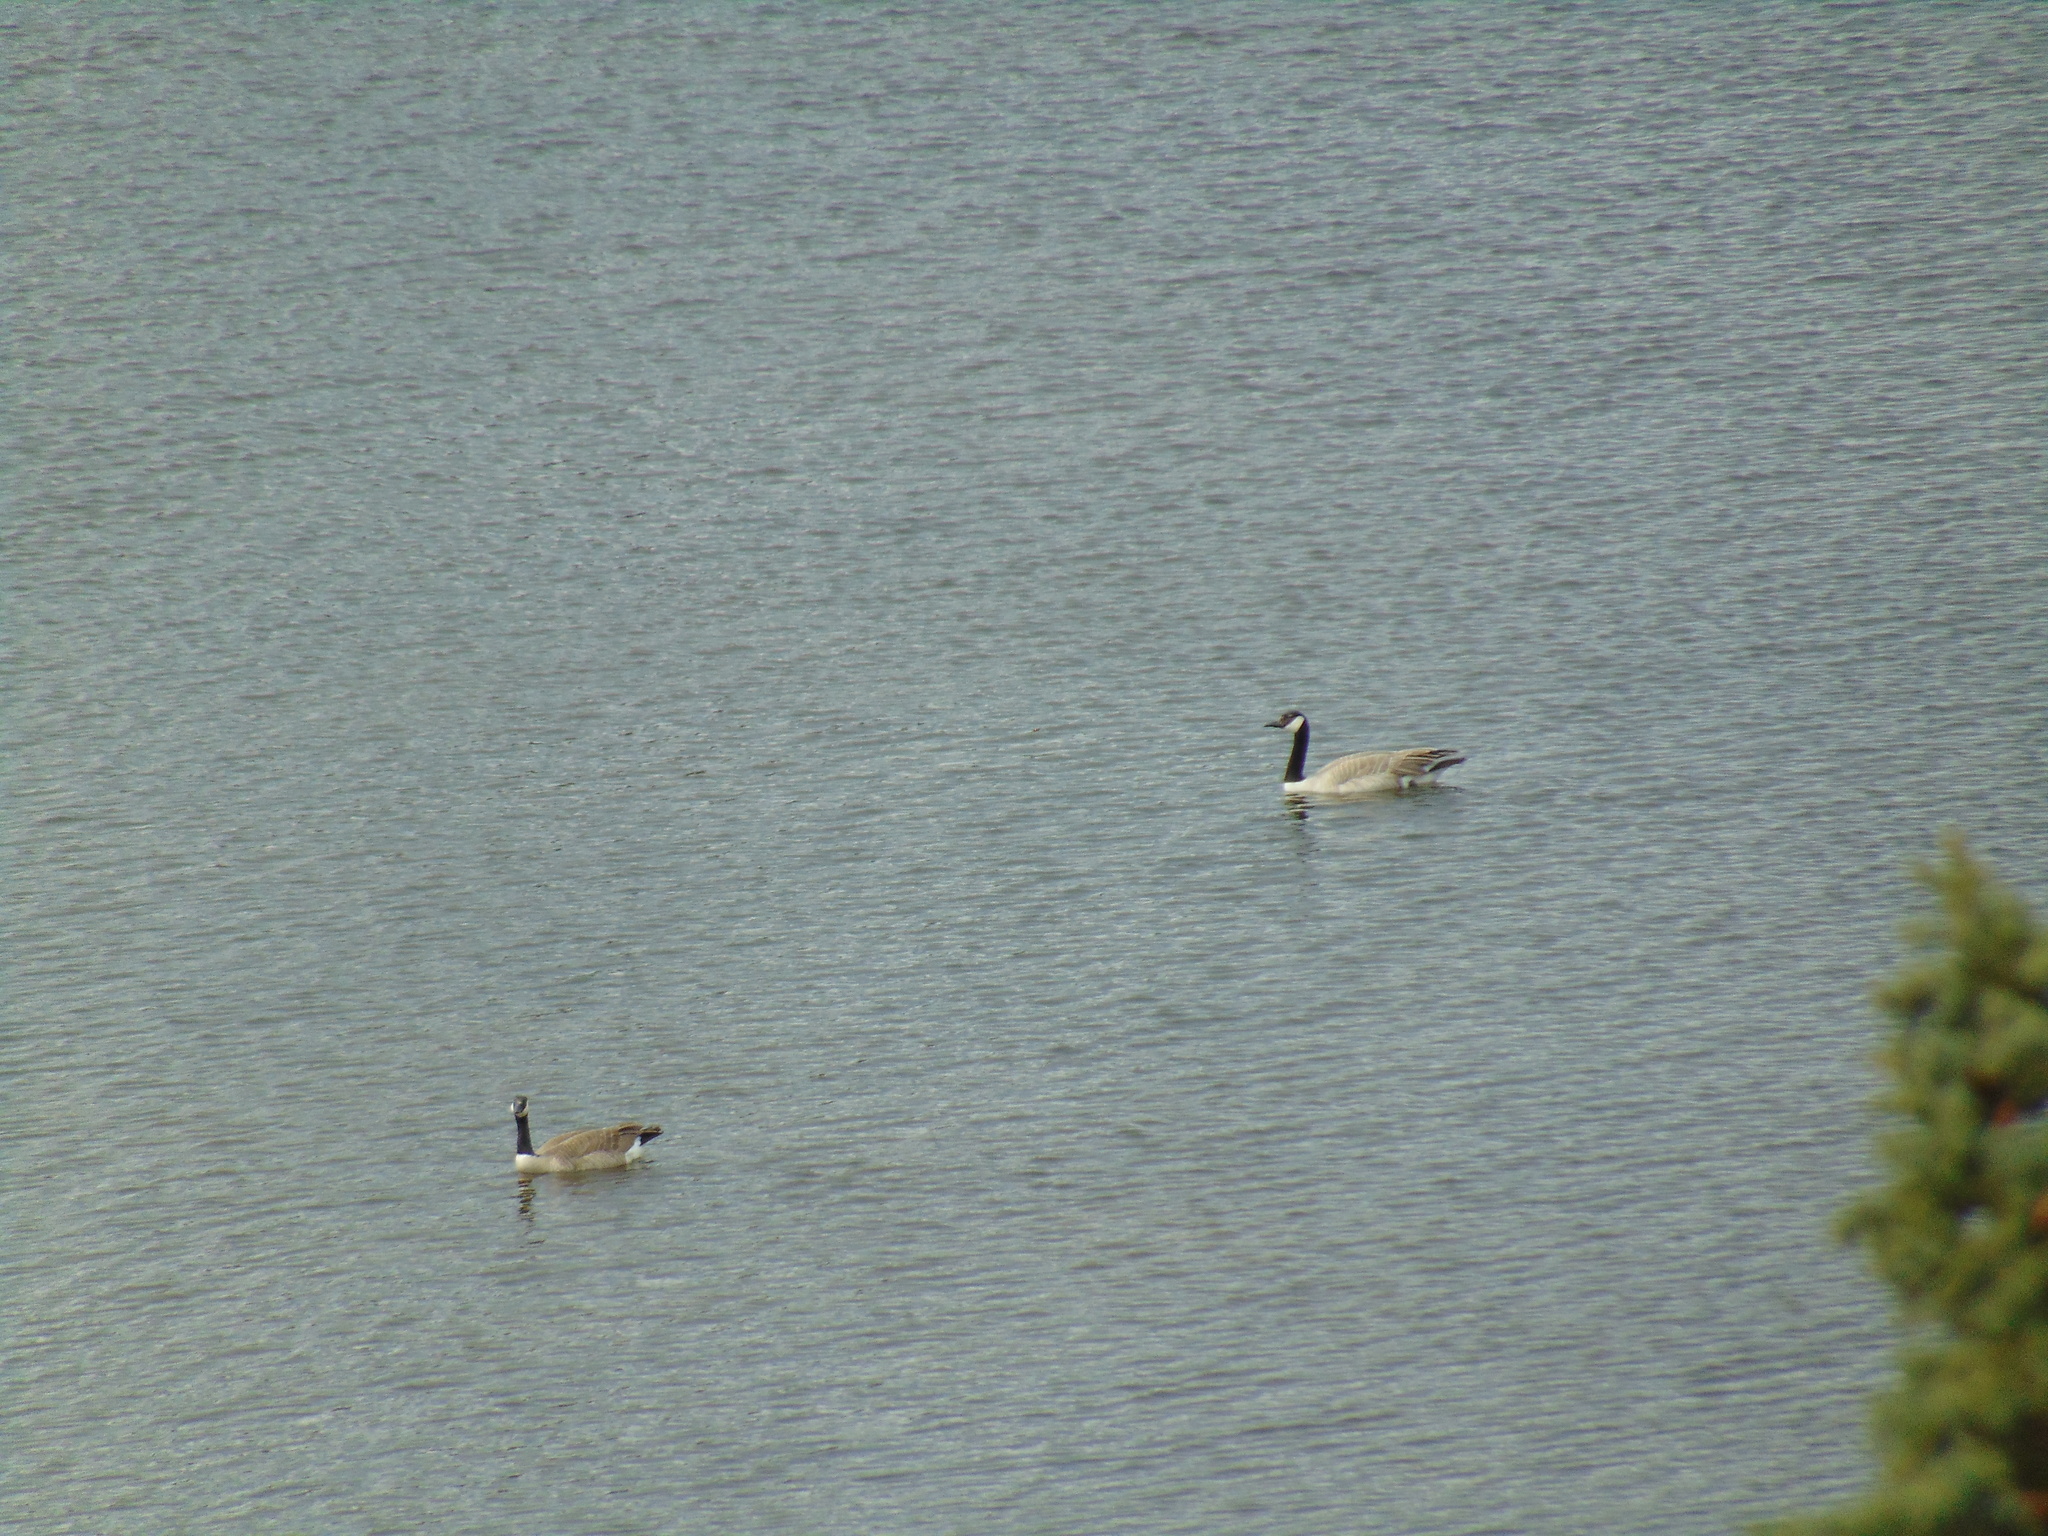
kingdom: Animalia
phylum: Chordata
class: Aves
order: Anseriformes
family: Anatidae
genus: Branta
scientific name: Branta canadensis
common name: Canada goose
